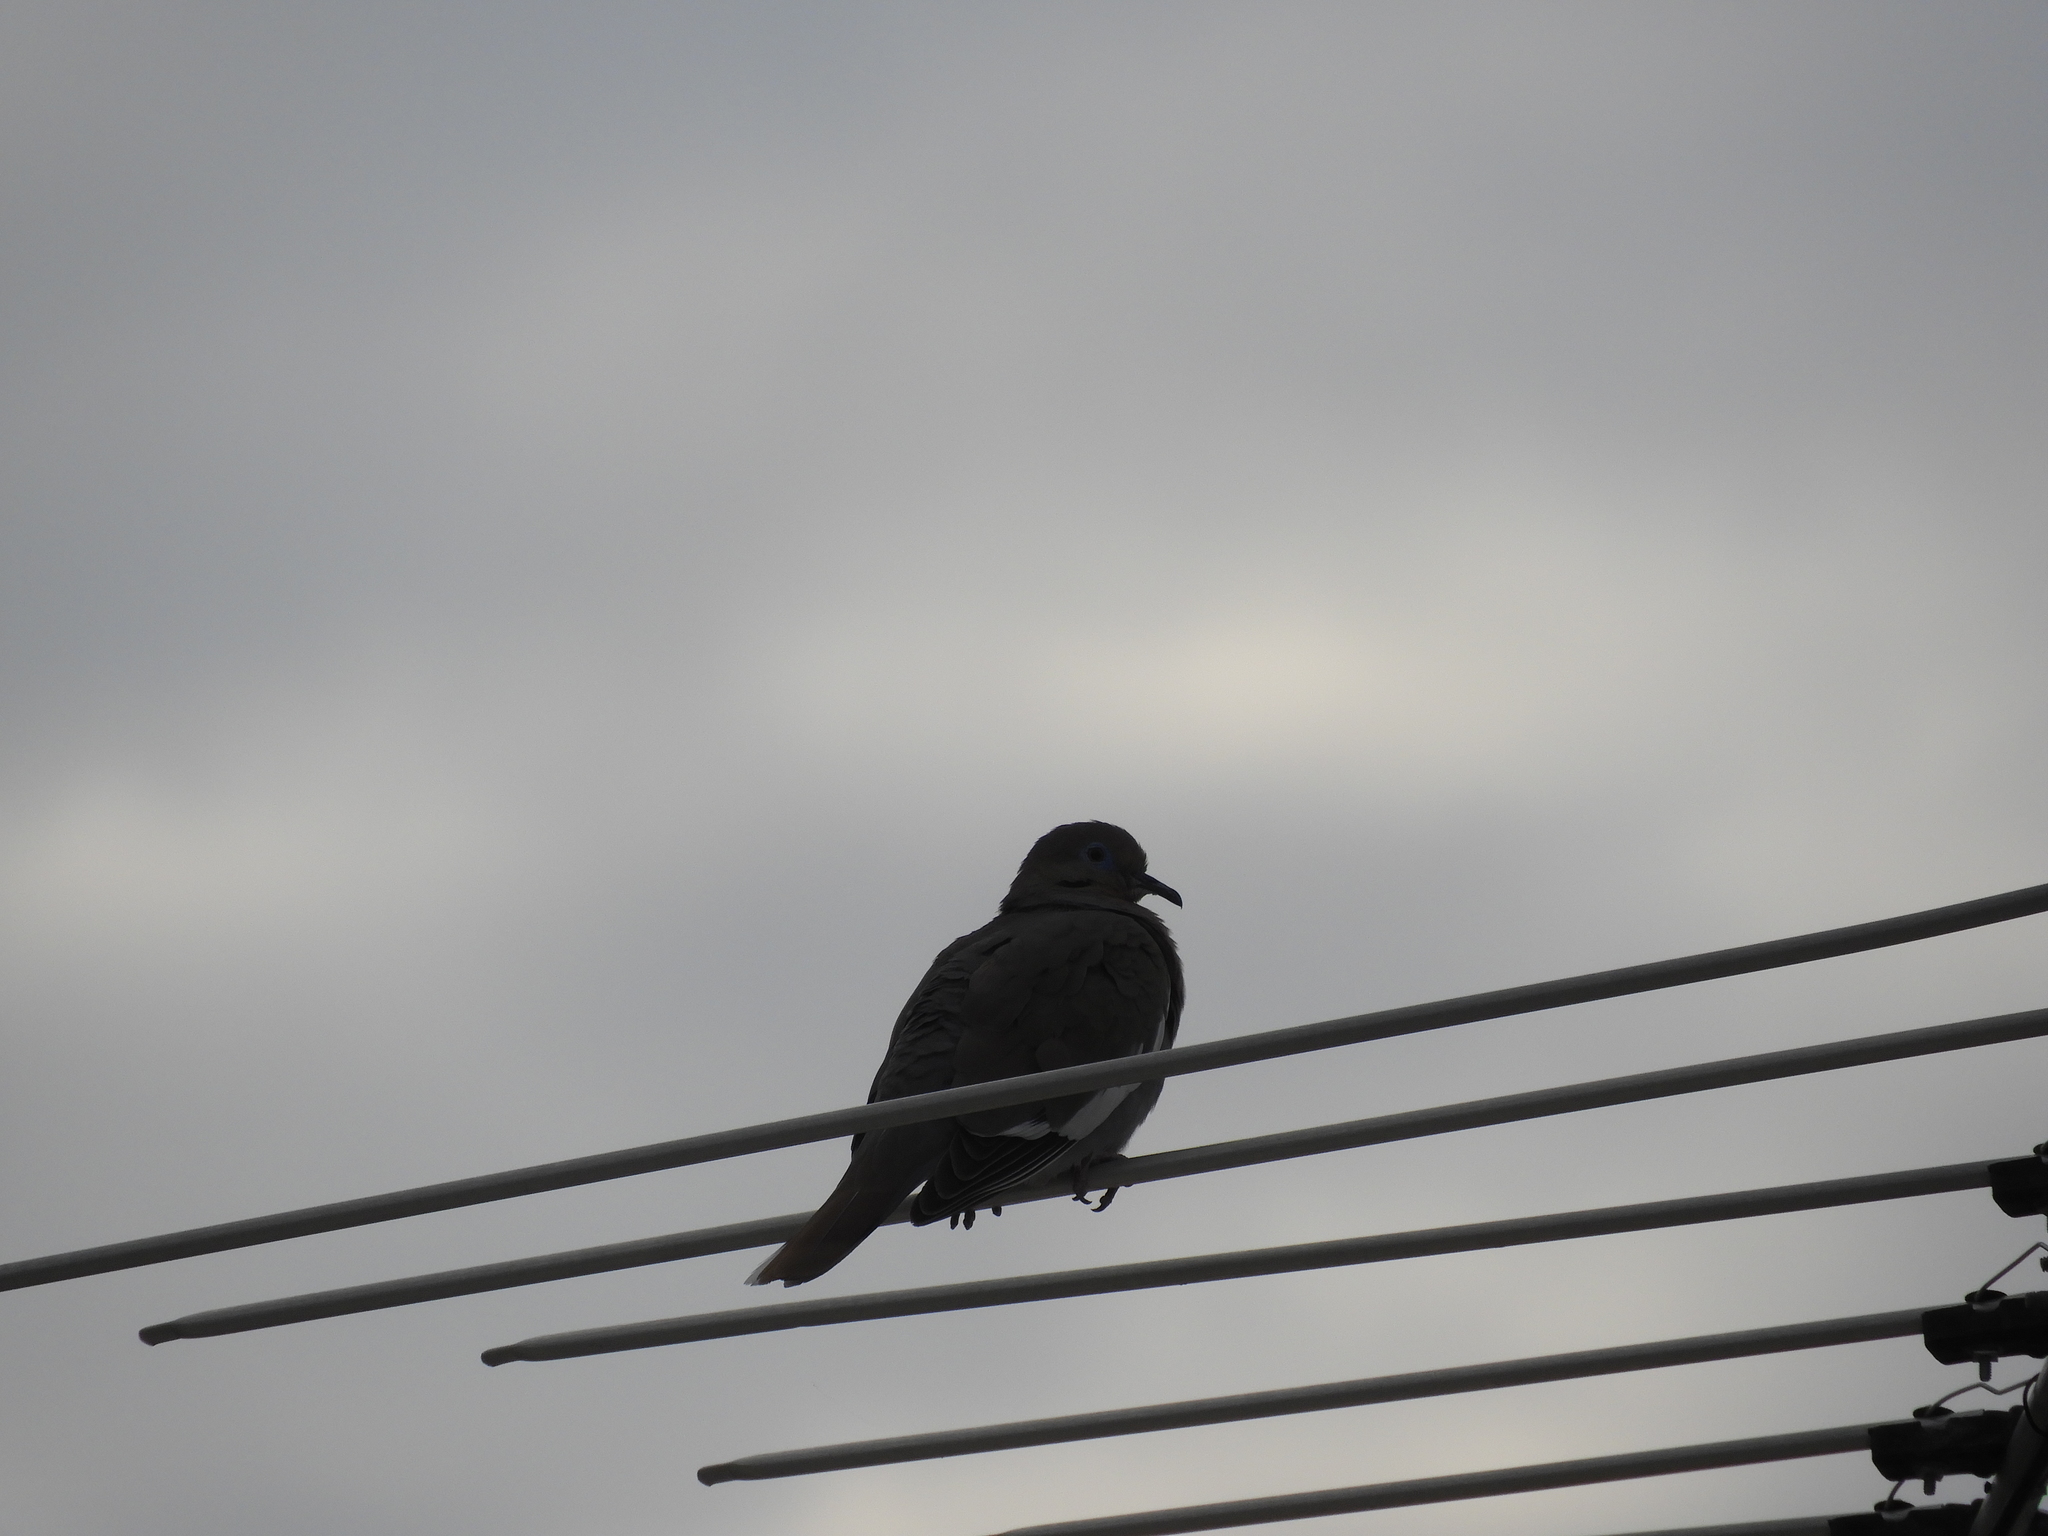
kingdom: Animalia
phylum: Chordata
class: Aves
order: Columbiformes
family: Columbidae
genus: Zenaida
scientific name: Zenaida asiatica
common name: White-winged dove
